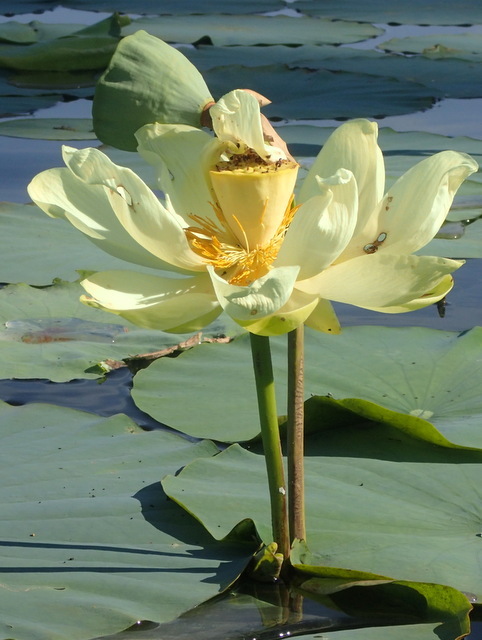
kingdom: Plantae
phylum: Tracheophyta
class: Magnoliopsida
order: Proteales
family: Nelumbonaceae
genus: Nelumbo
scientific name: Nelumbo lutea
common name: American lotus
